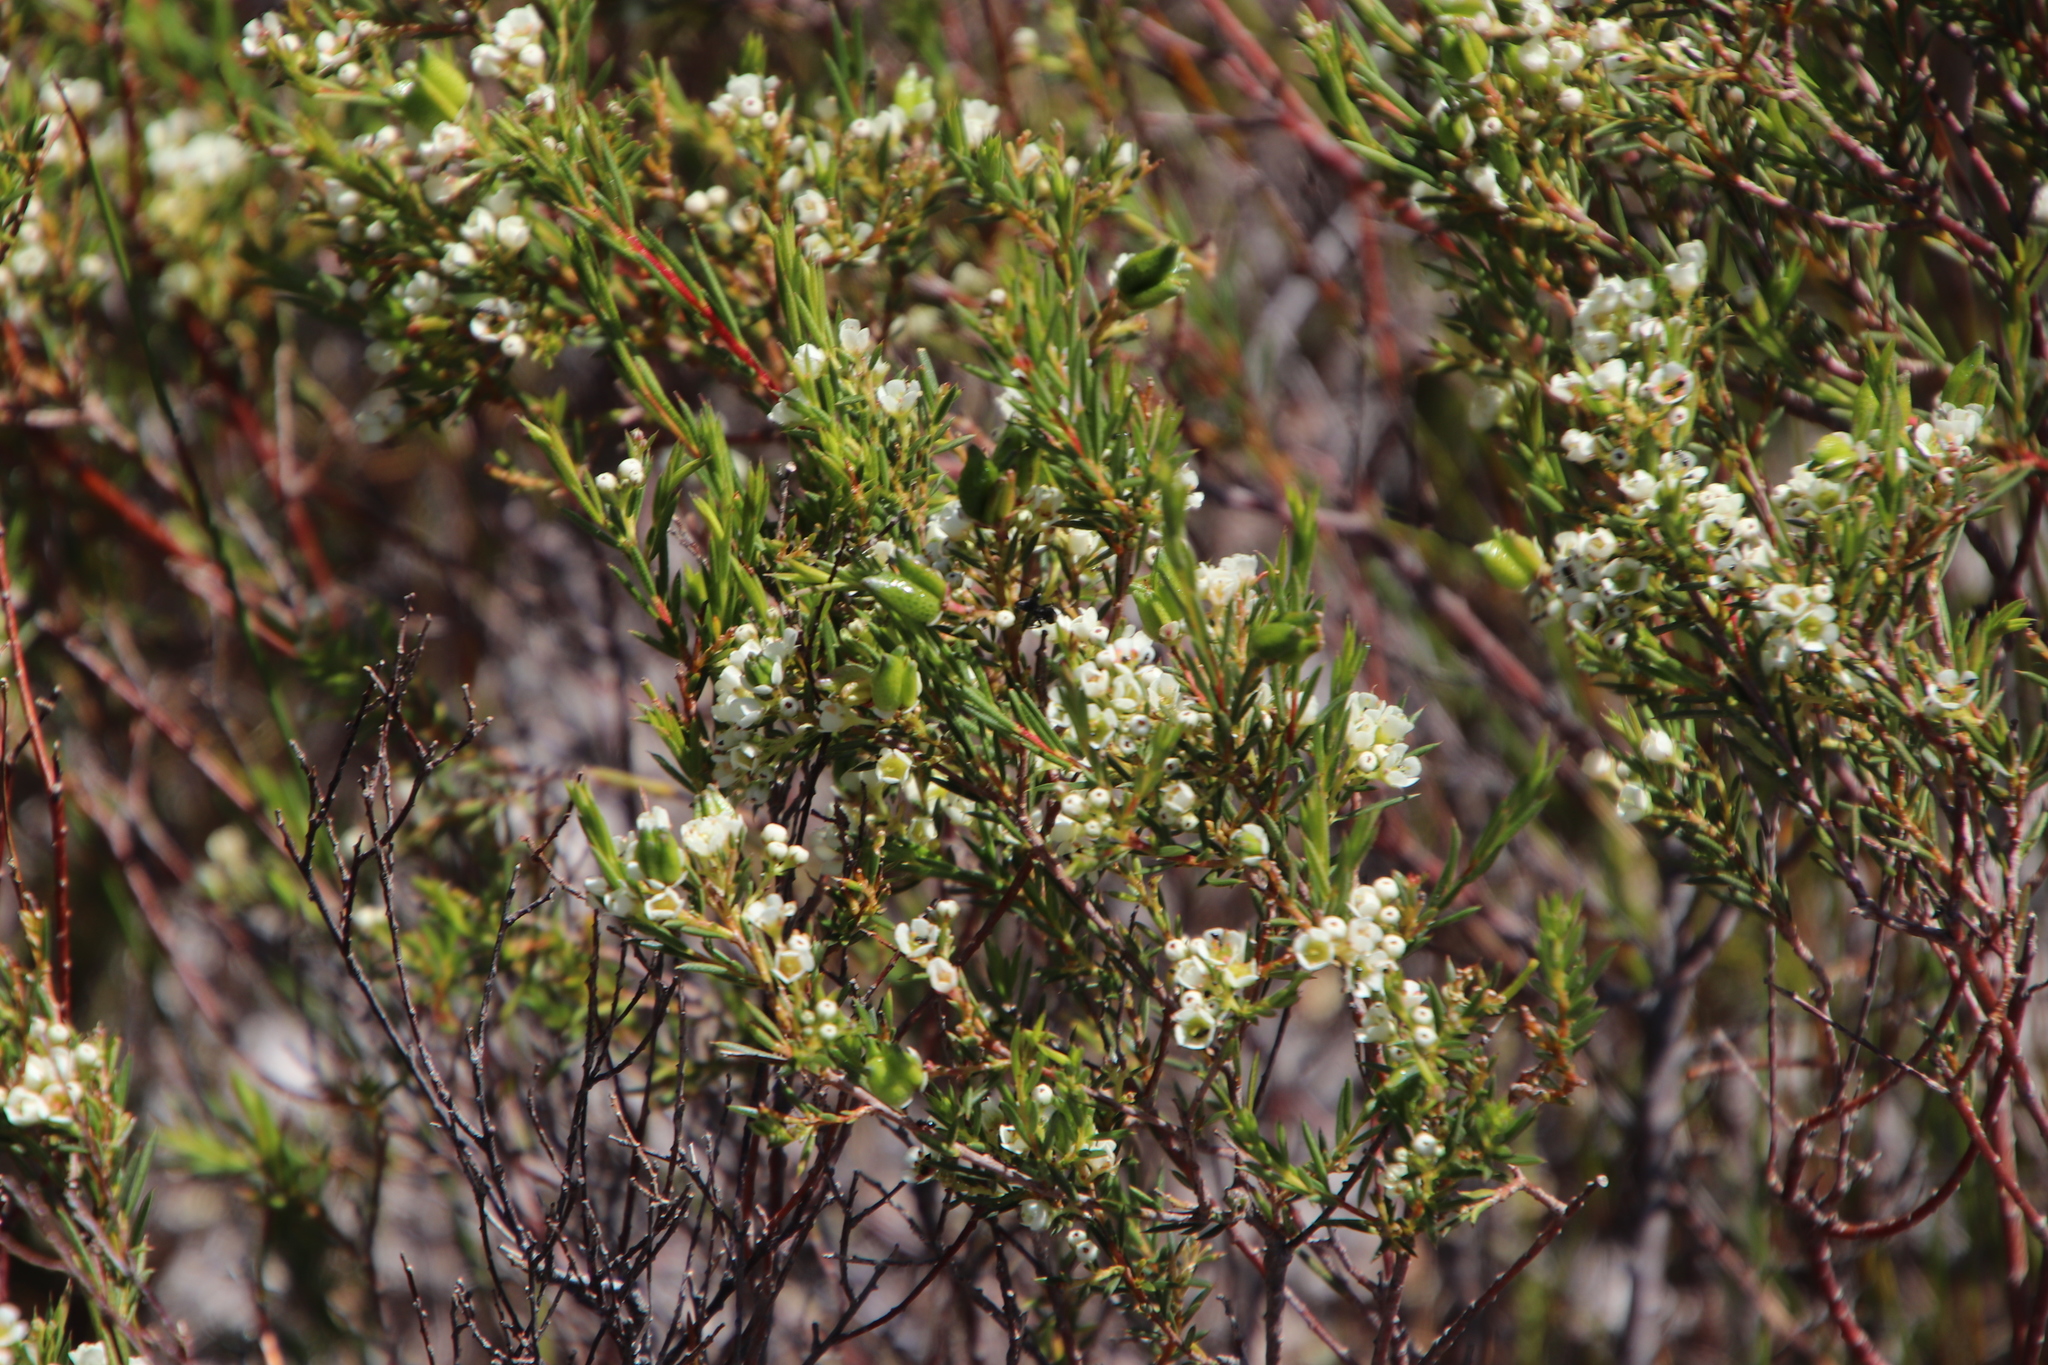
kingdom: Plantae
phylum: Tracheophyta
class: Magnoliopsida
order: Sapindales
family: Rutaceae
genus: Diosma
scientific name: Diosma hirsuta
